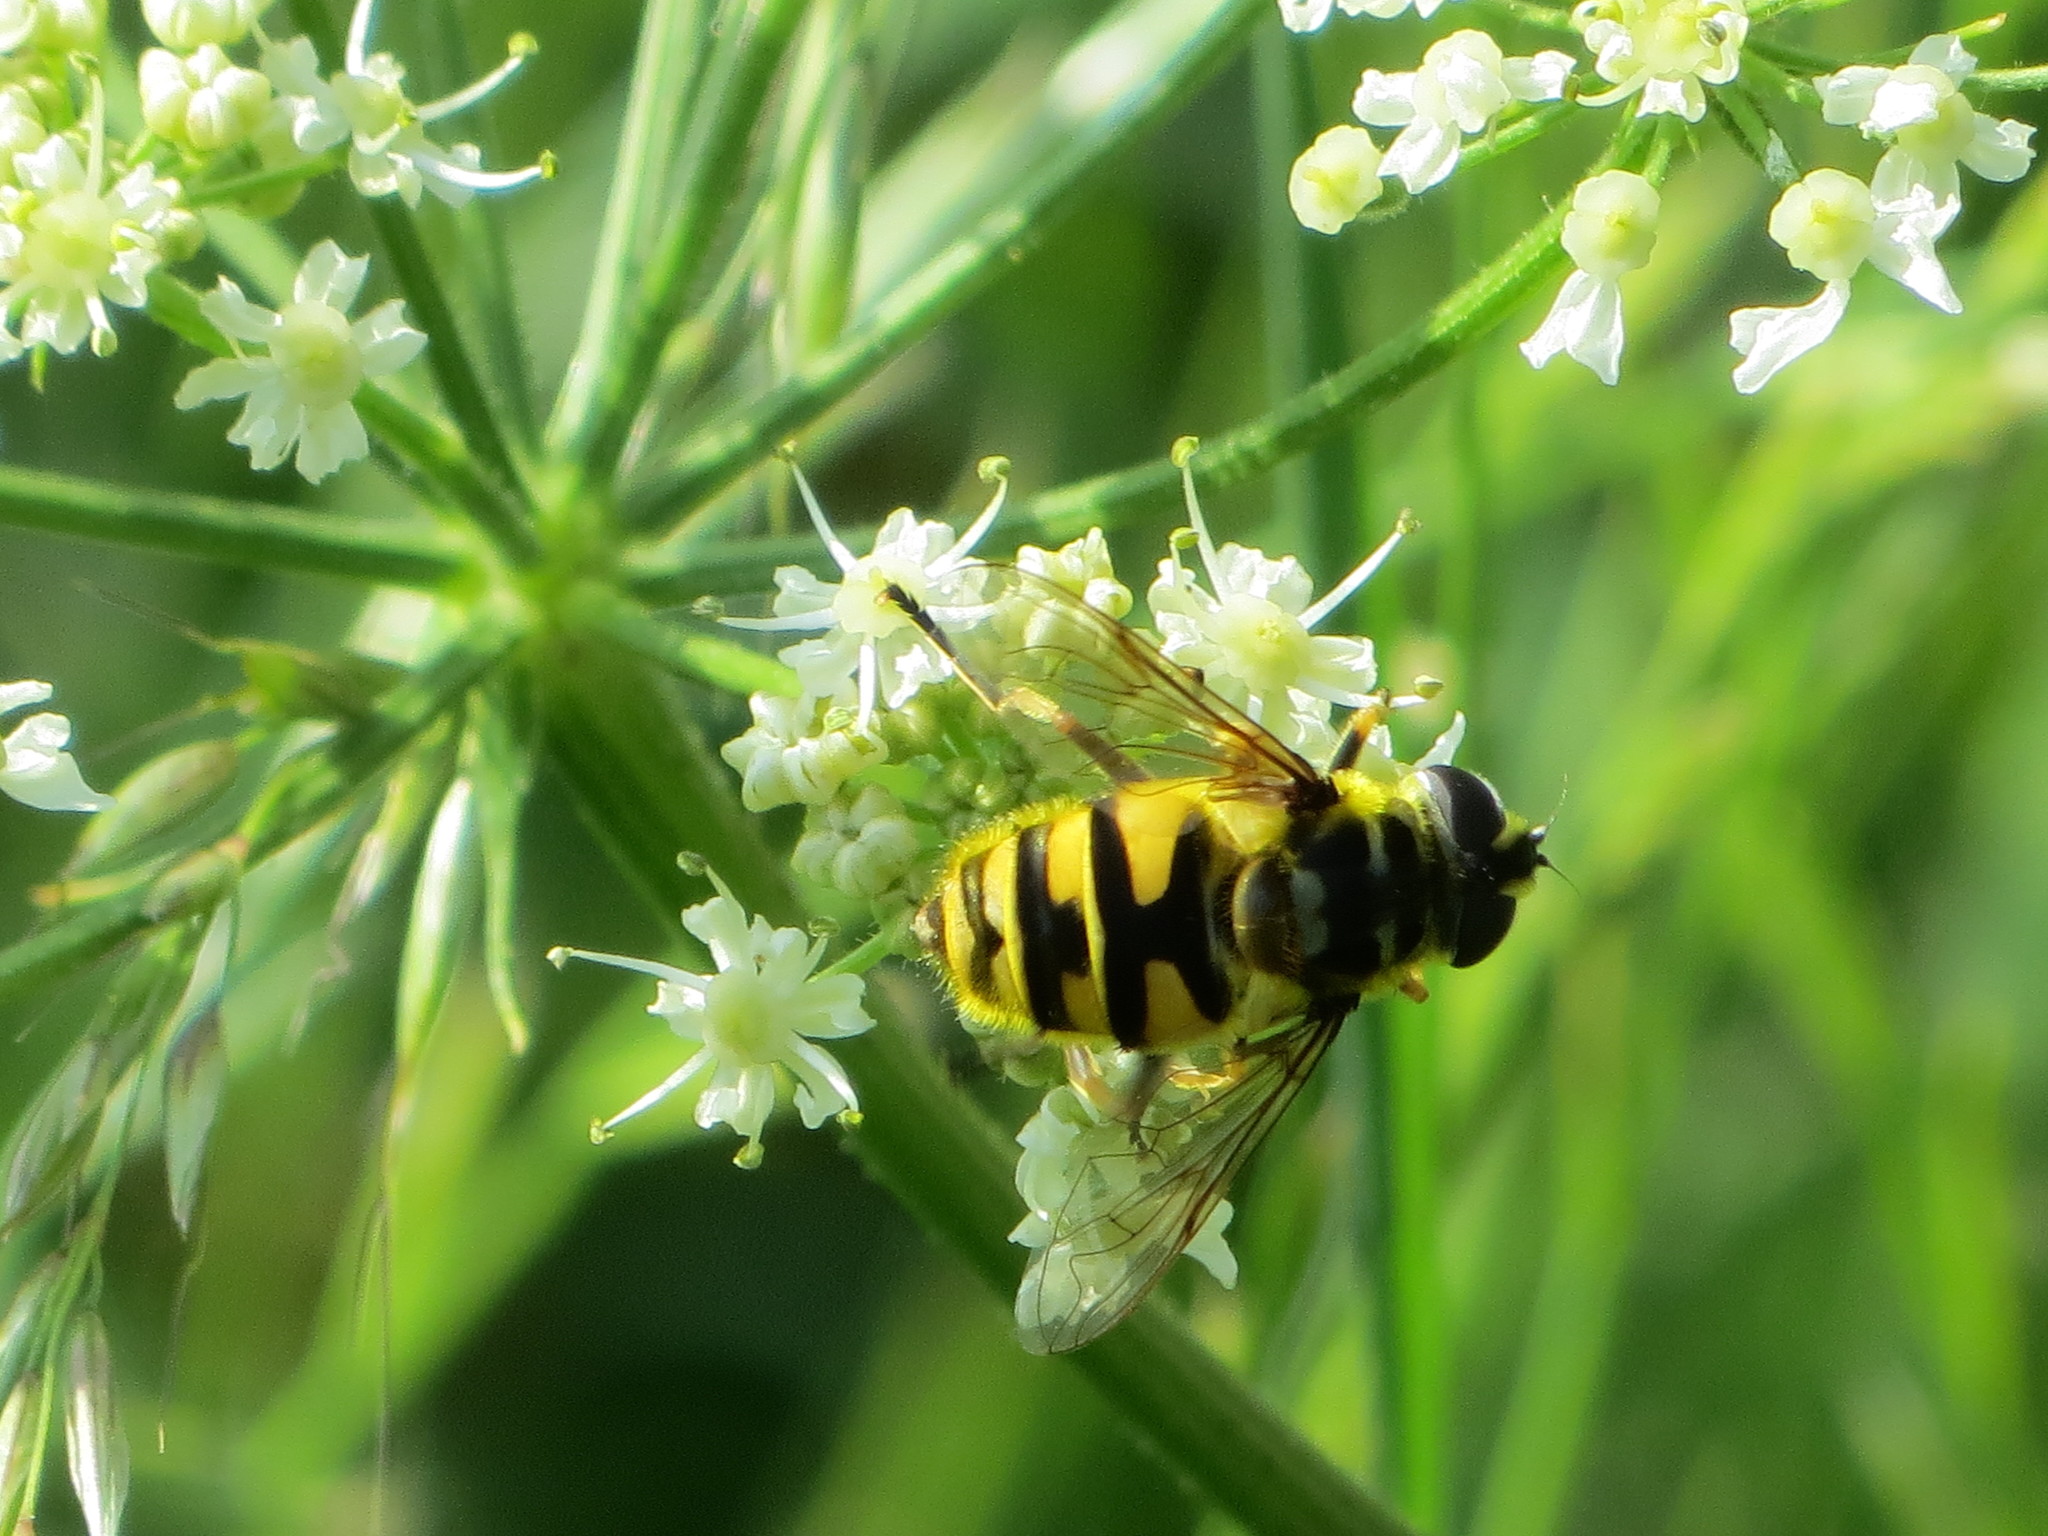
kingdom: Animalia
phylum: Arthropoda
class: Insecta
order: Diptera
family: Syrphidae
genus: Myathropa
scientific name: Myathropa florea
